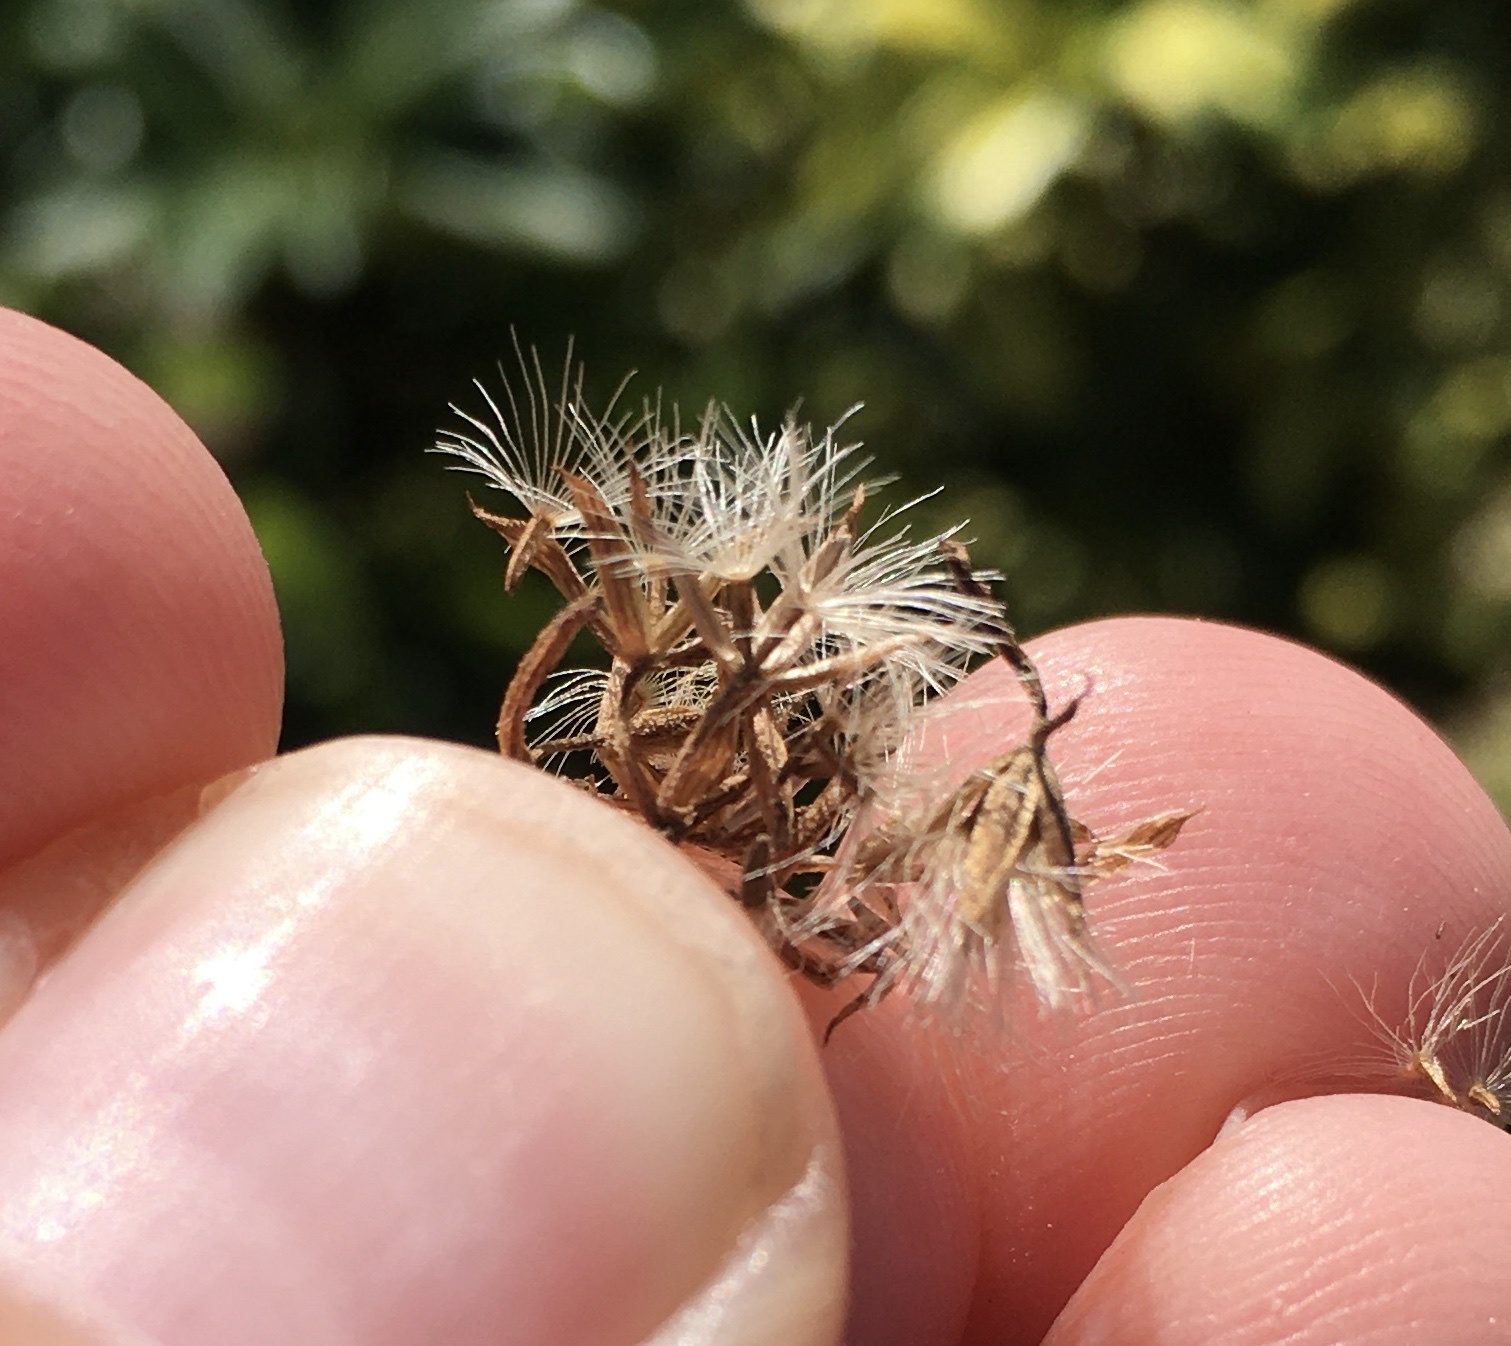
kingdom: Plantae
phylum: Tracheophyta
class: Magnoliopsida
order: Asterales
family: Asteraceae
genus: Mikania
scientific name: Mikania scandens
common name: Climbing hempvine
